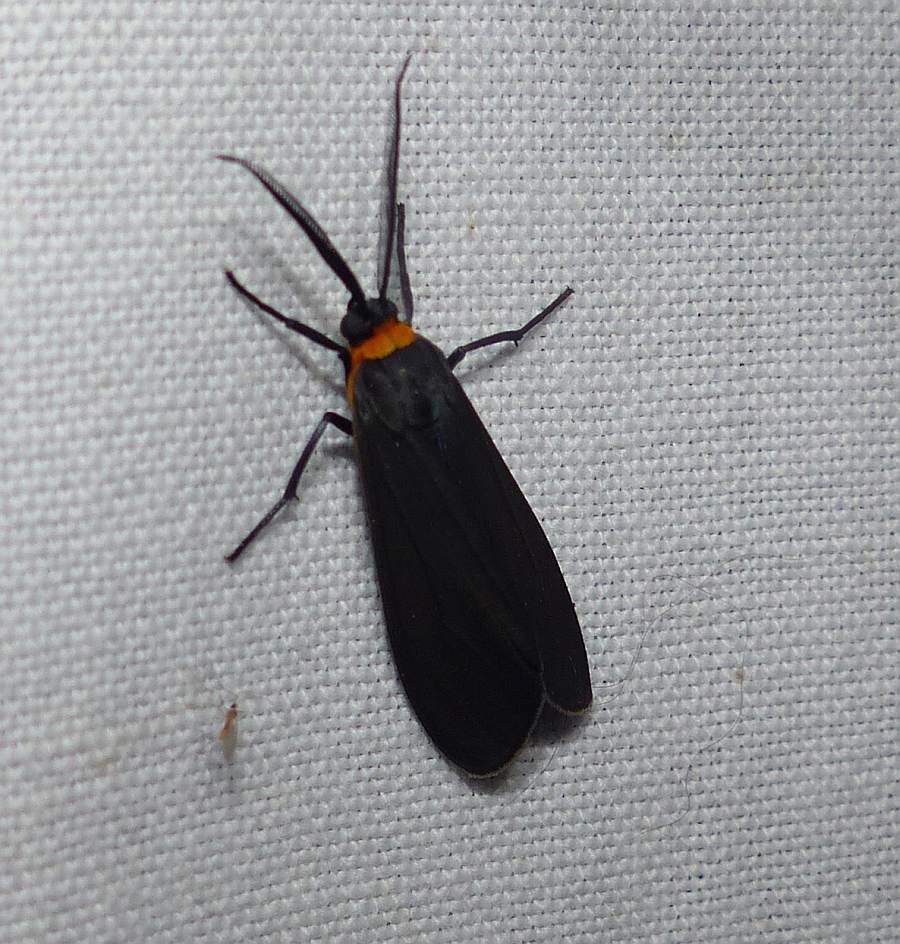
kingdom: Animalia
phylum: Arthropoda
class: Insecta
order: Lepidoptera
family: Erebidae
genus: Cisseps
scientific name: Cisseps fulvicollis
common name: Yellow-collared scape moth
